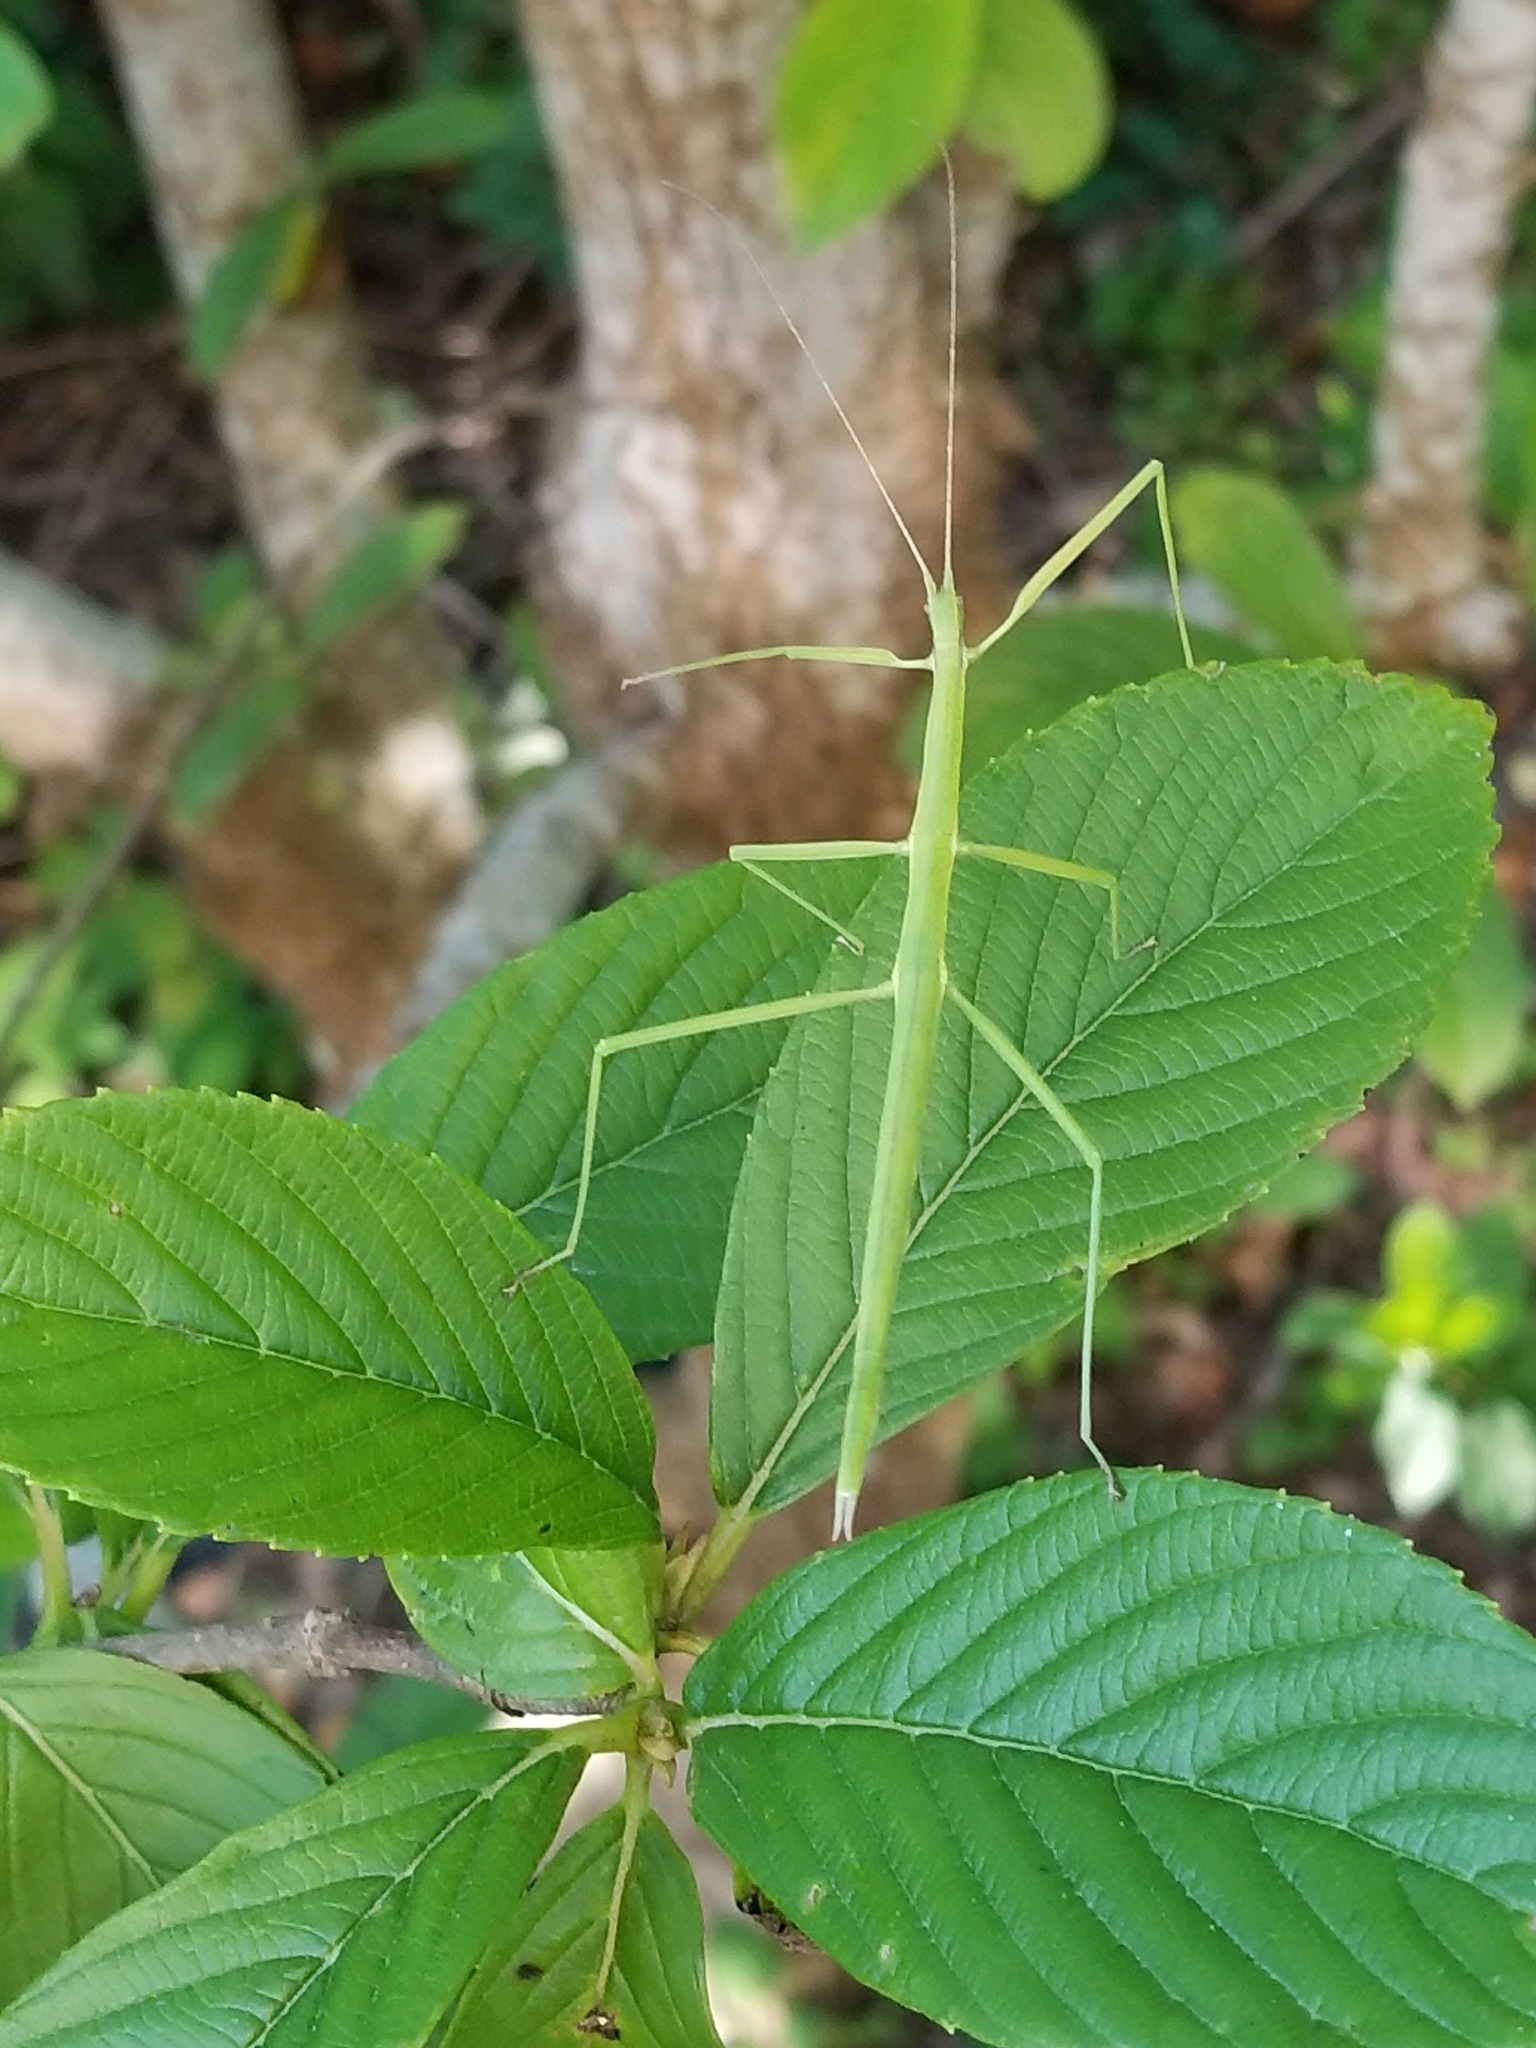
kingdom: Animalia
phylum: Arthropoda
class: Insecta
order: Phasmida
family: Diapheromeridae
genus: Manomera
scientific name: Manomera blatchleyi
